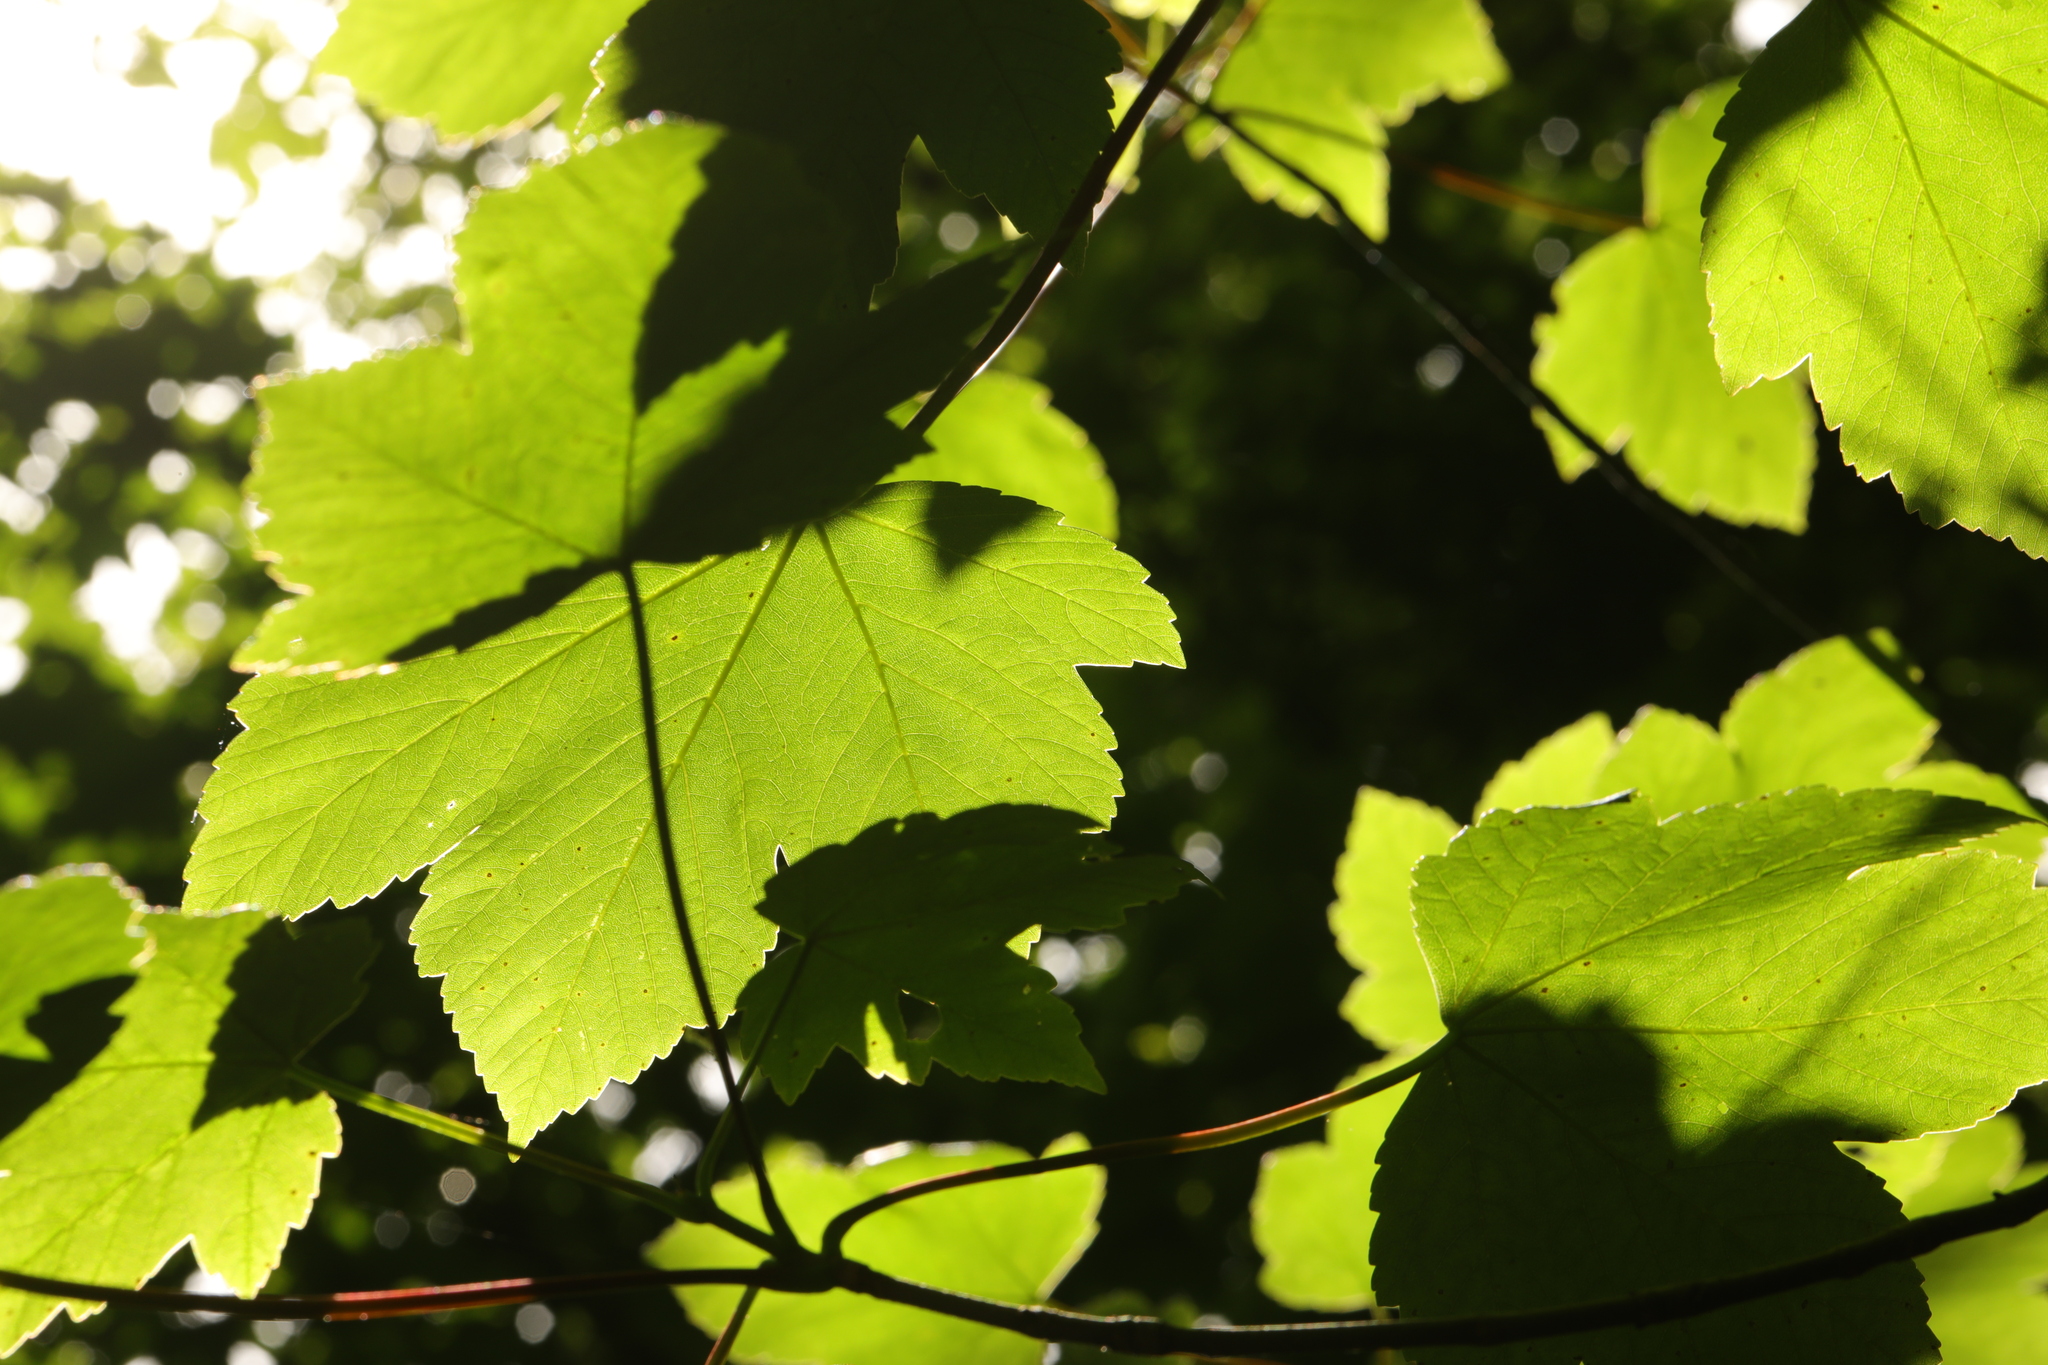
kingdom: Plantae
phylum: Tracheophyta
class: Magnoliopsida
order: Sapindales
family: Sapindaceae
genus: Acer
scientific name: Acer pseudoplatanus
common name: Sycamore
